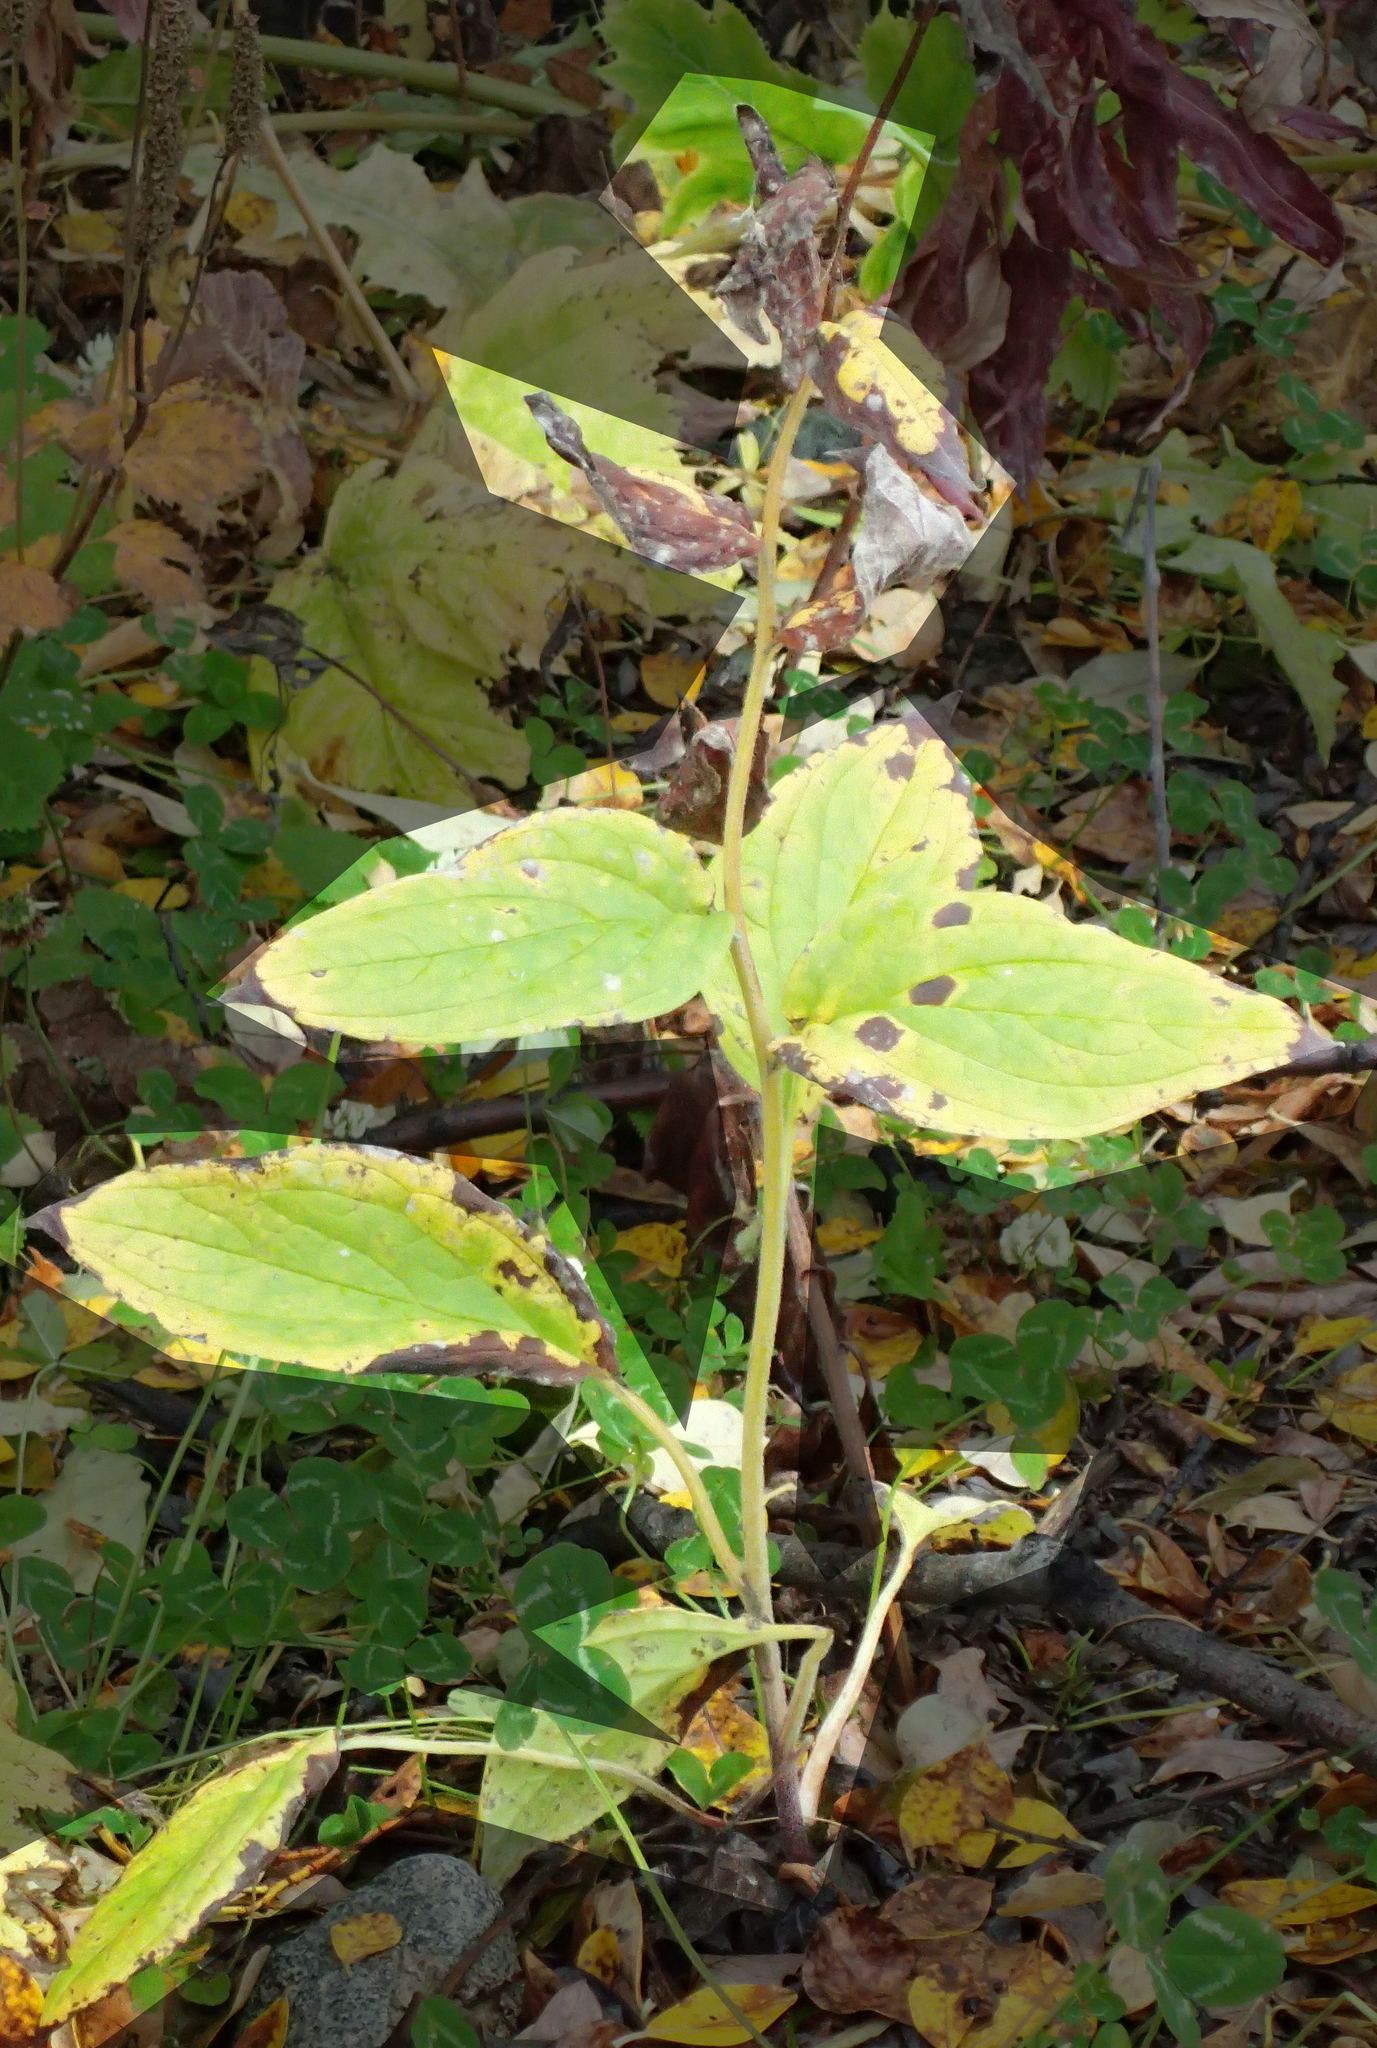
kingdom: Plantae
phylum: Tracheophyta
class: Magnoliopsida
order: Boraginales
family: Boraginaceae
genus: Mertensia
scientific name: Mertensia paniculata
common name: Panicled bluebells
